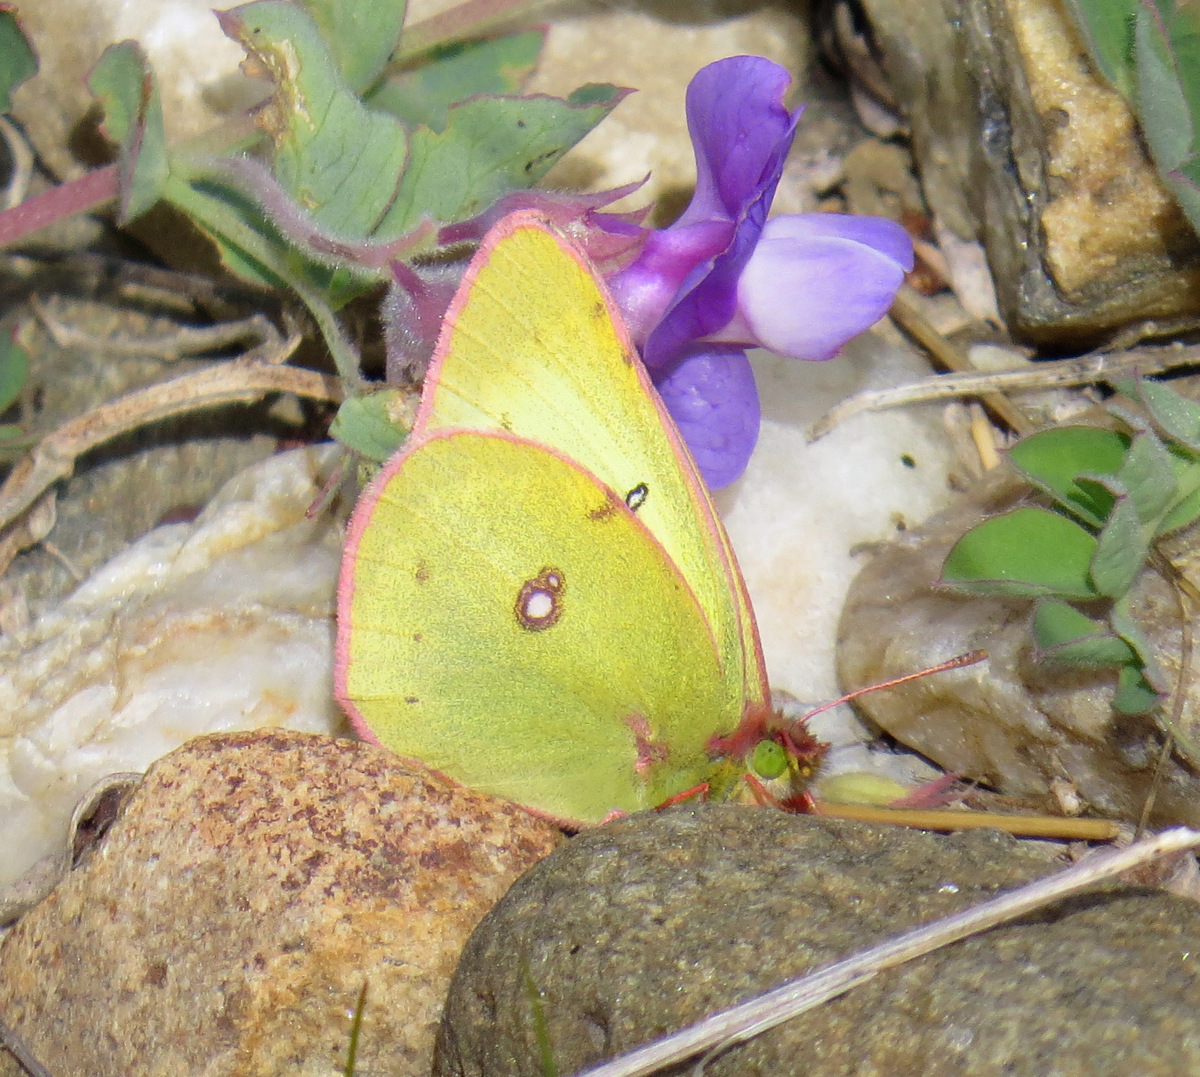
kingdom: Animalia
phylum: Arthropoda
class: Insecta
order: Lepidoptera
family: Pieridae
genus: Colias
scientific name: Colias philodice
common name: Clouded sulphur
